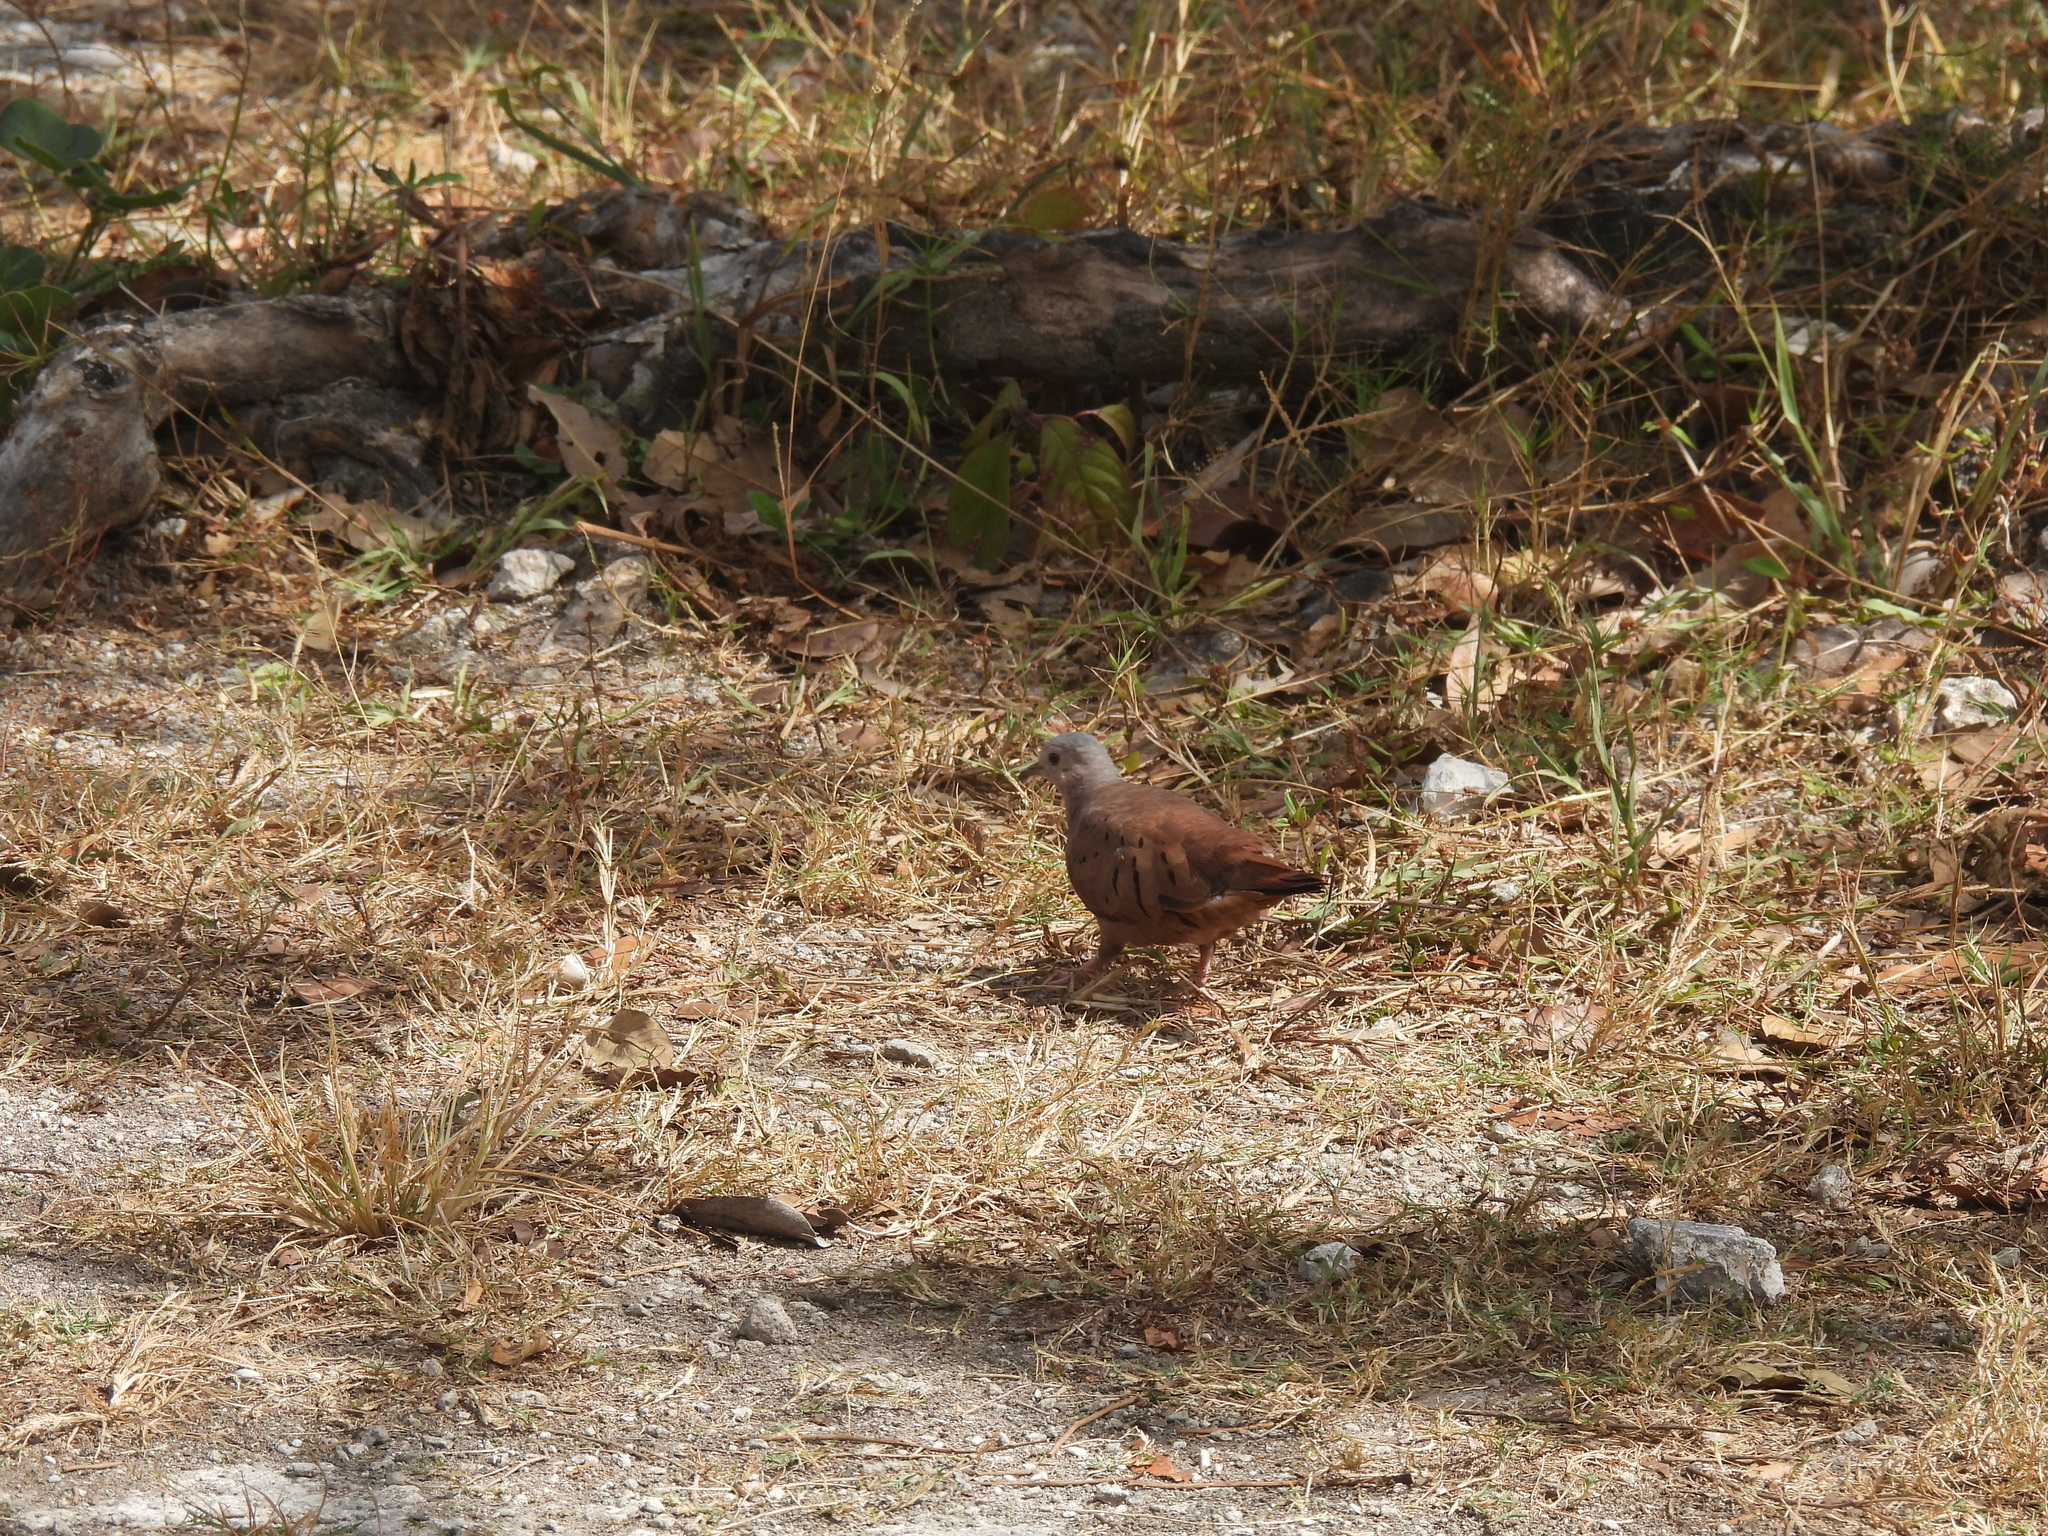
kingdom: Animalia
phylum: Chordata
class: Aves
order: Columbiformes
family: Columbidae
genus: Columbina
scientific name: Columbina talpacoti
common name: Ruddy ground dove
